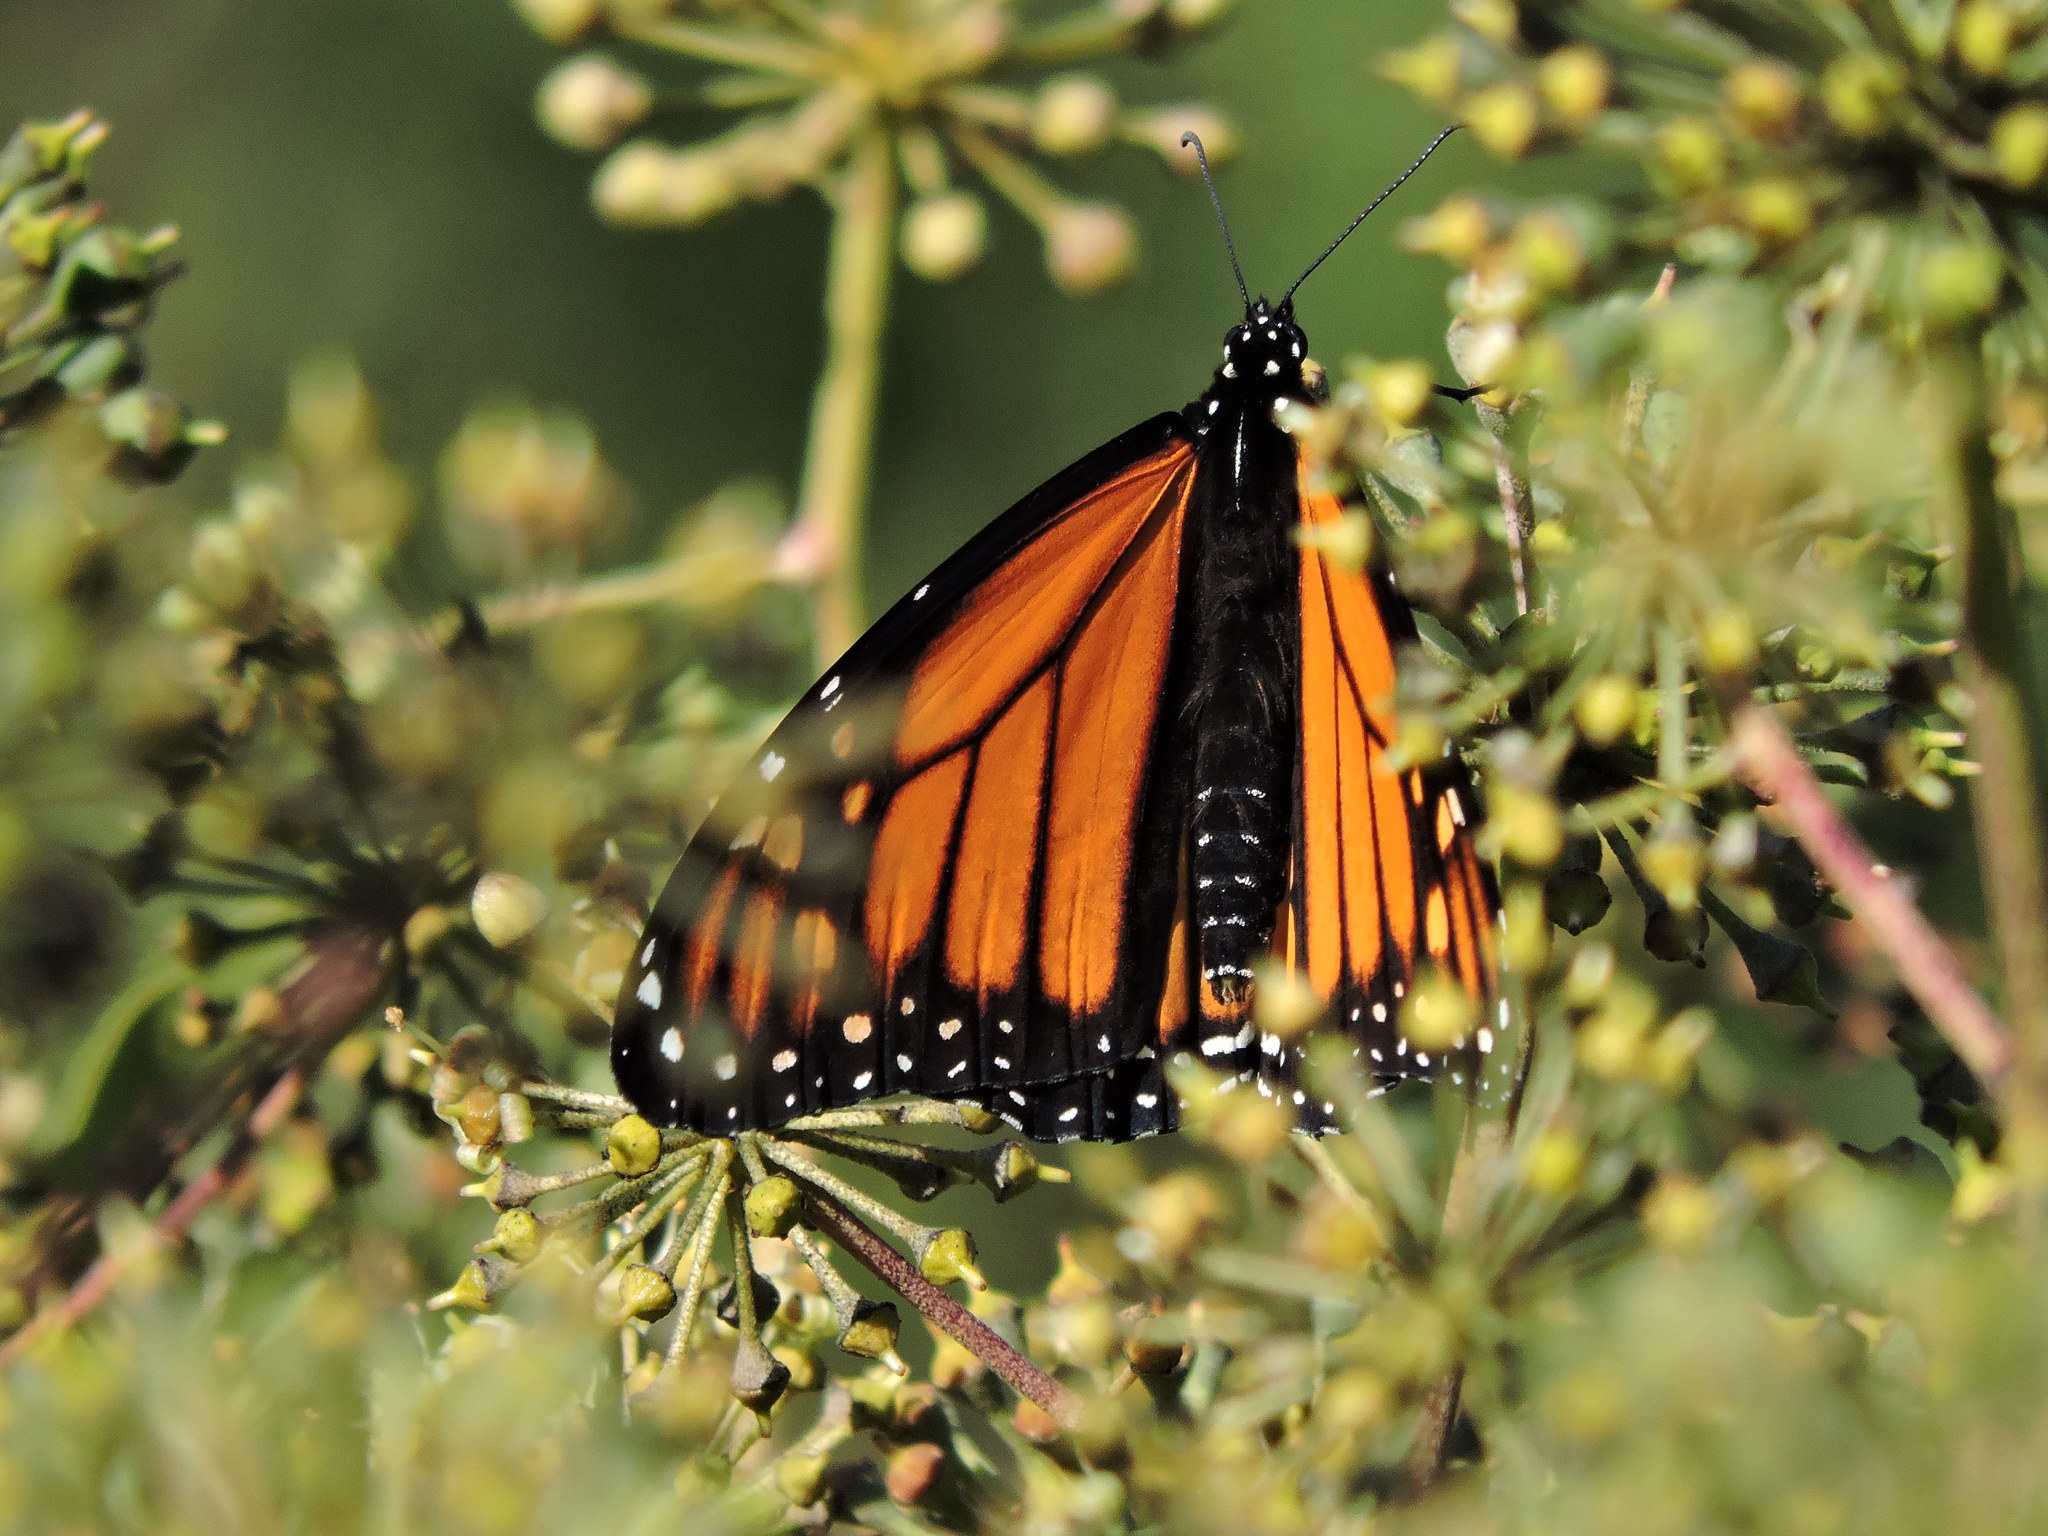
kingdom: Animalia
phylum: Arthropoda
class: Insecta
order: Lepidoptera
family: Nymphalidae
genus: Danaus
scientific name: Danaus plexippus
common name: Monarch
